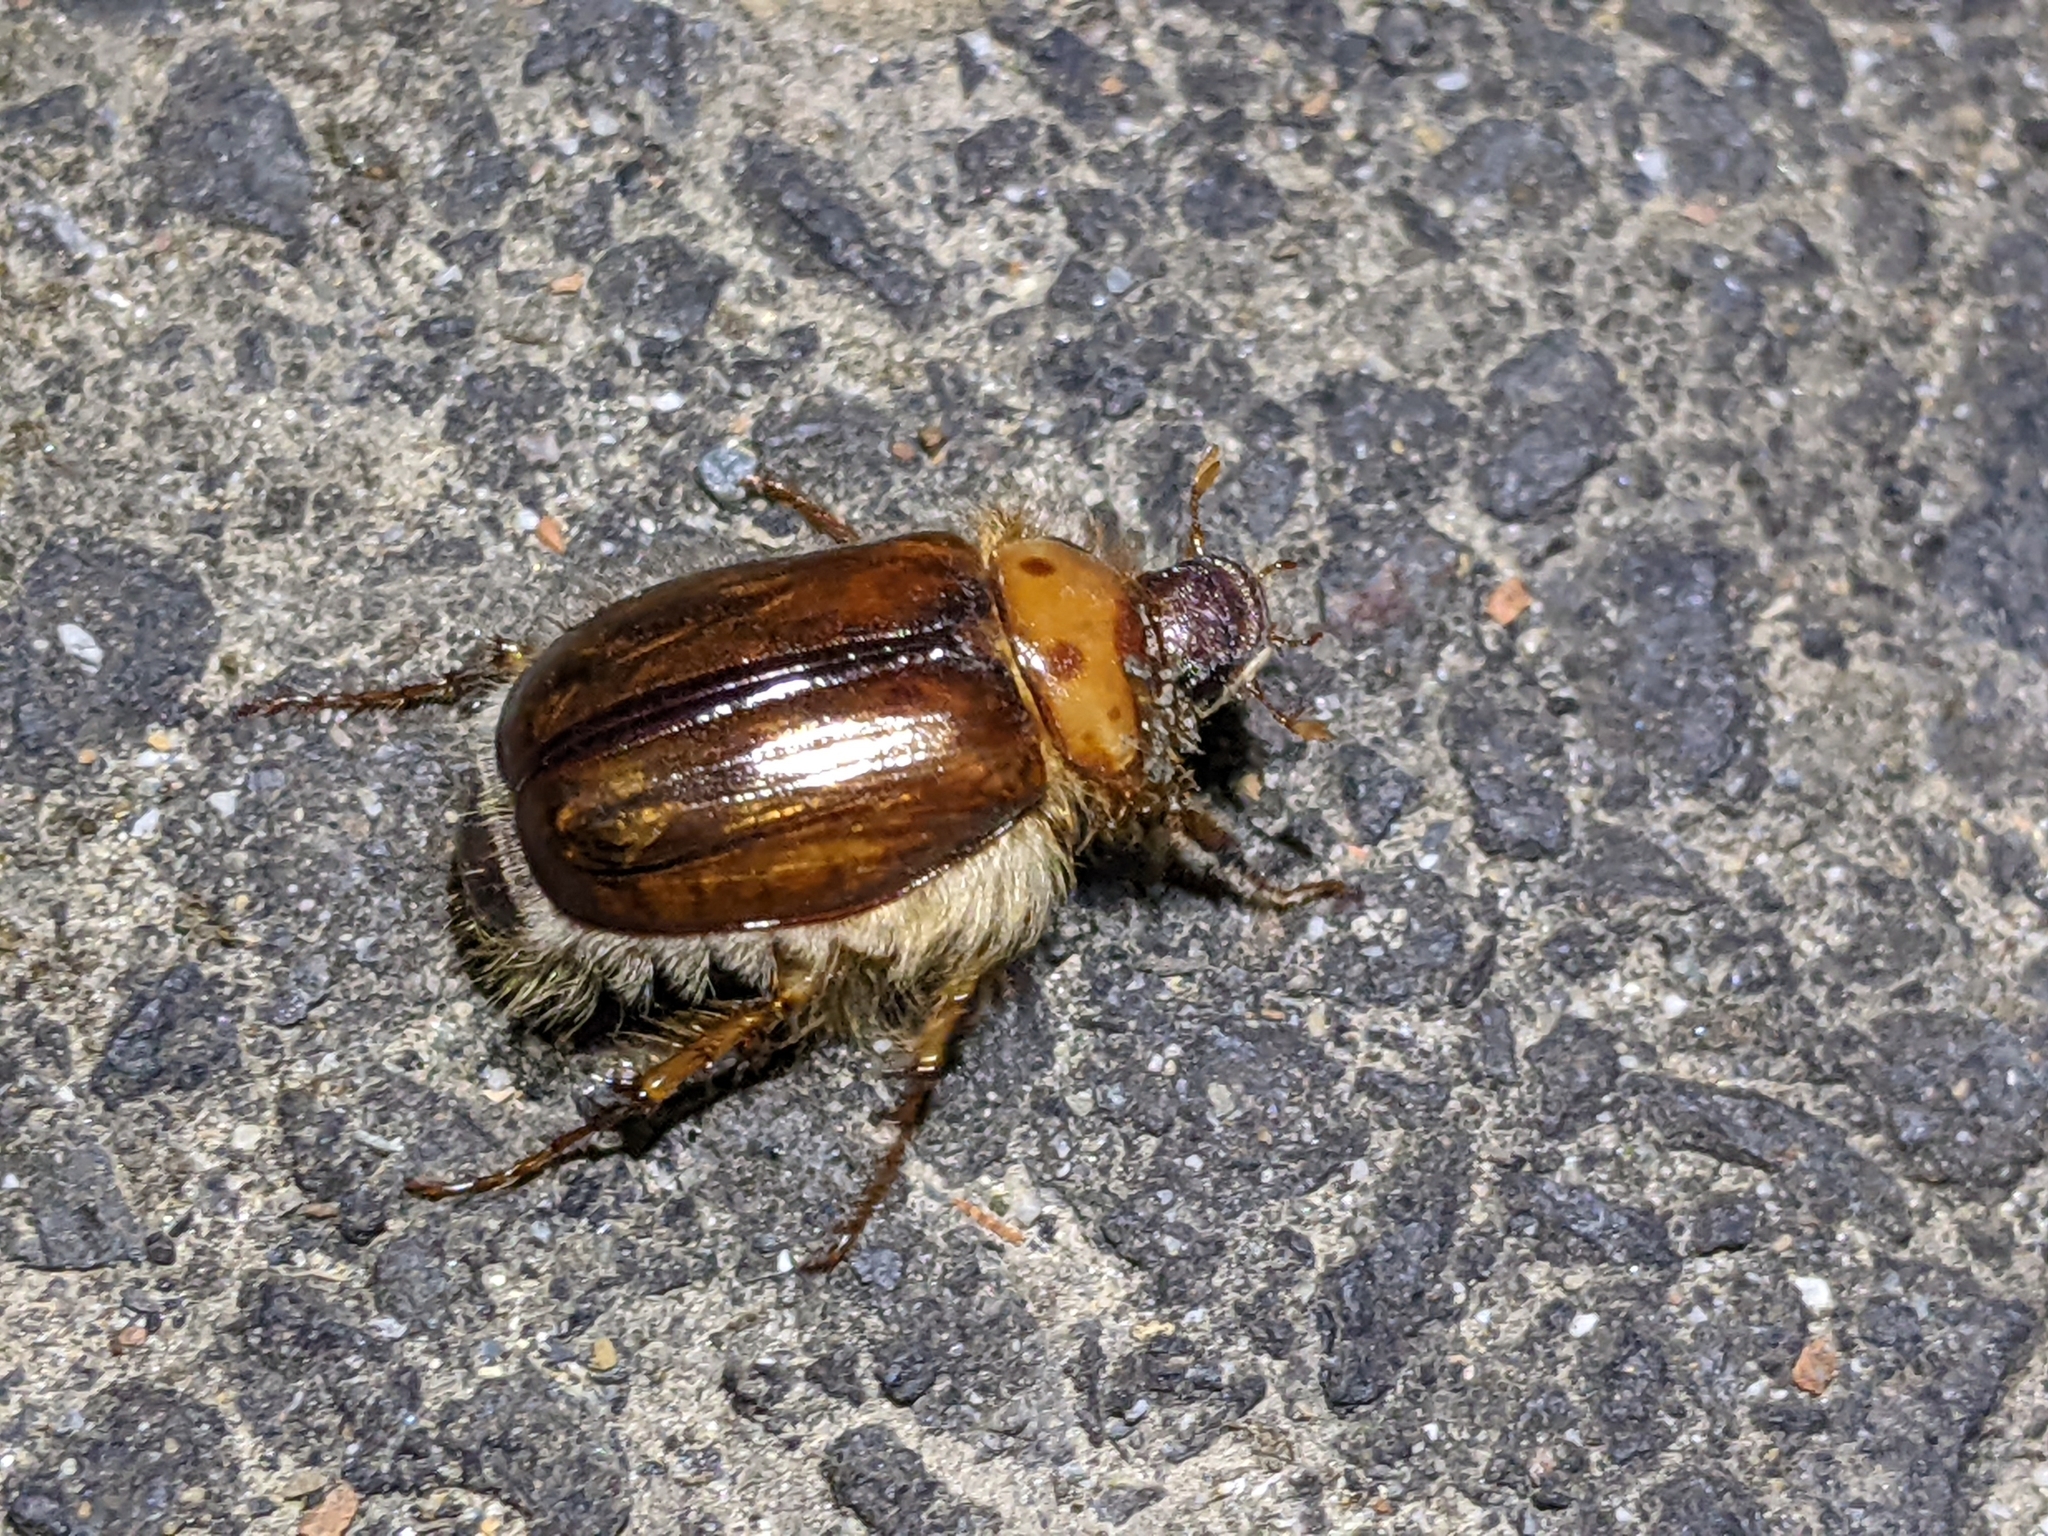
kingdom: Animalia
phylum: Arthropoda
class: Insecta
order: Coleoptera
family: Scarabaeidae
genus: Phobetus
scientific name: Phobetus comatus
